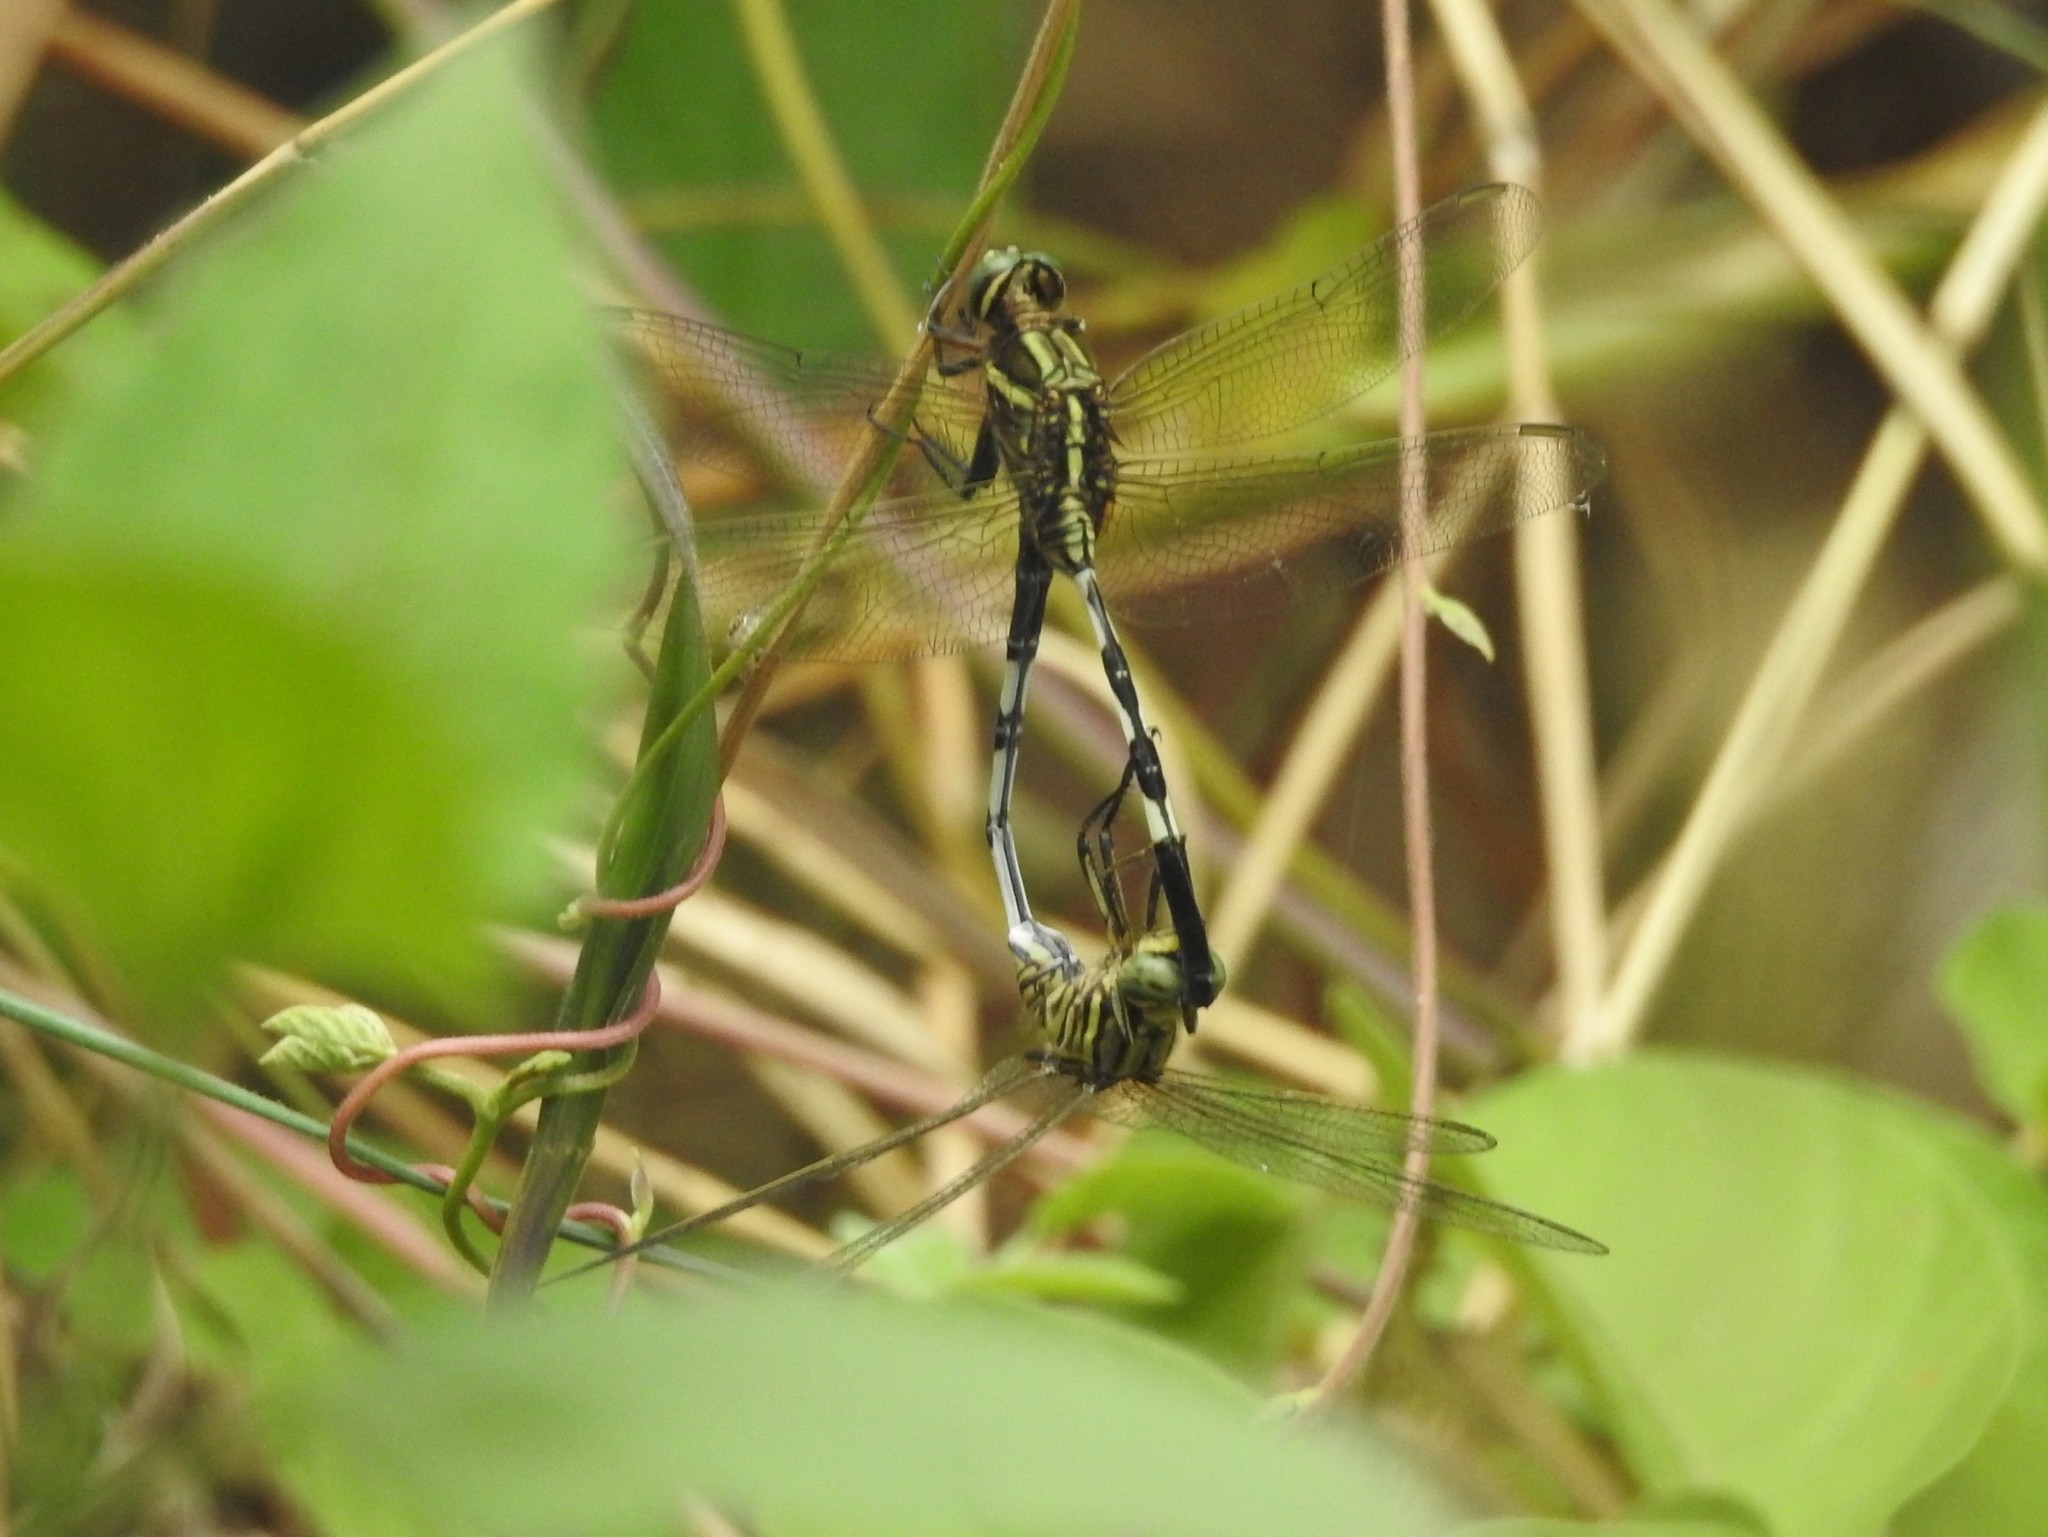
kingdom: Animalia
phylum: Arthropoda
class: Insecta
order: Odonata
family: Libellulidae
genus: Orthetrum
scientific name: Orthetrum sabina
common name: Slender skimmer
